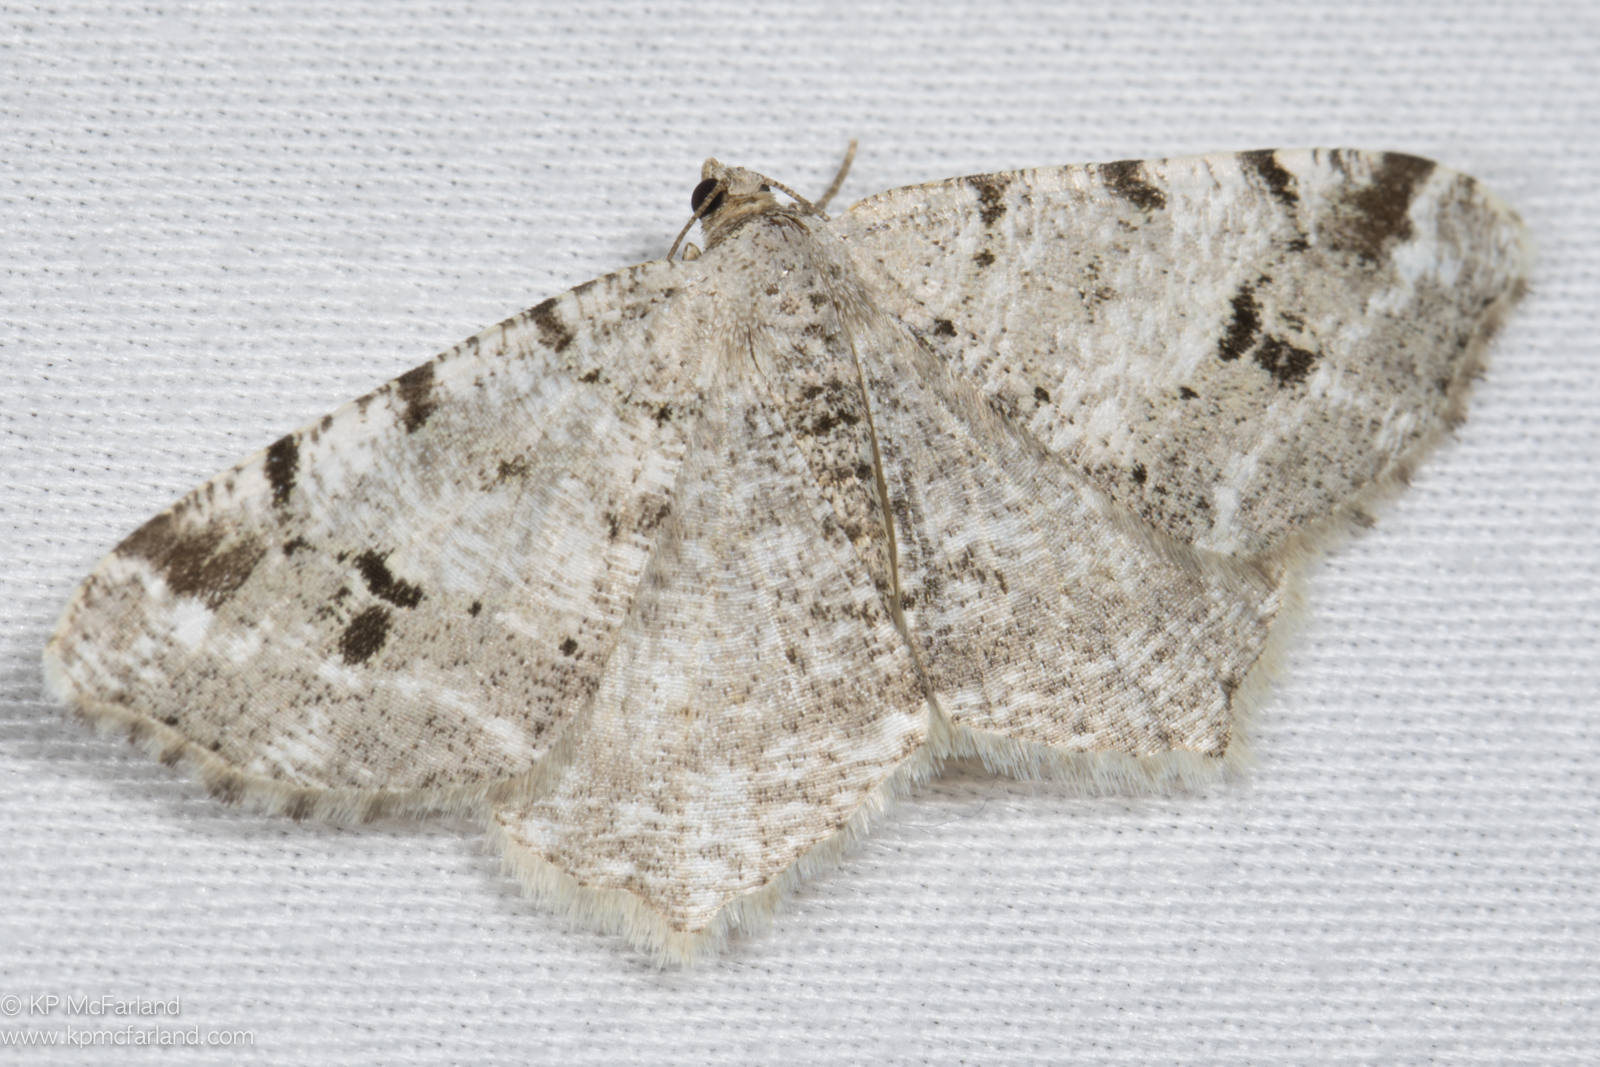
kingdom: Animalia
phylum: Arthropoda
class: Insecta
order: Lepidoptera
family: Geometridae
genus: Macaria
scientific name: Macaria fissinotata
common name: Hemlock angle
